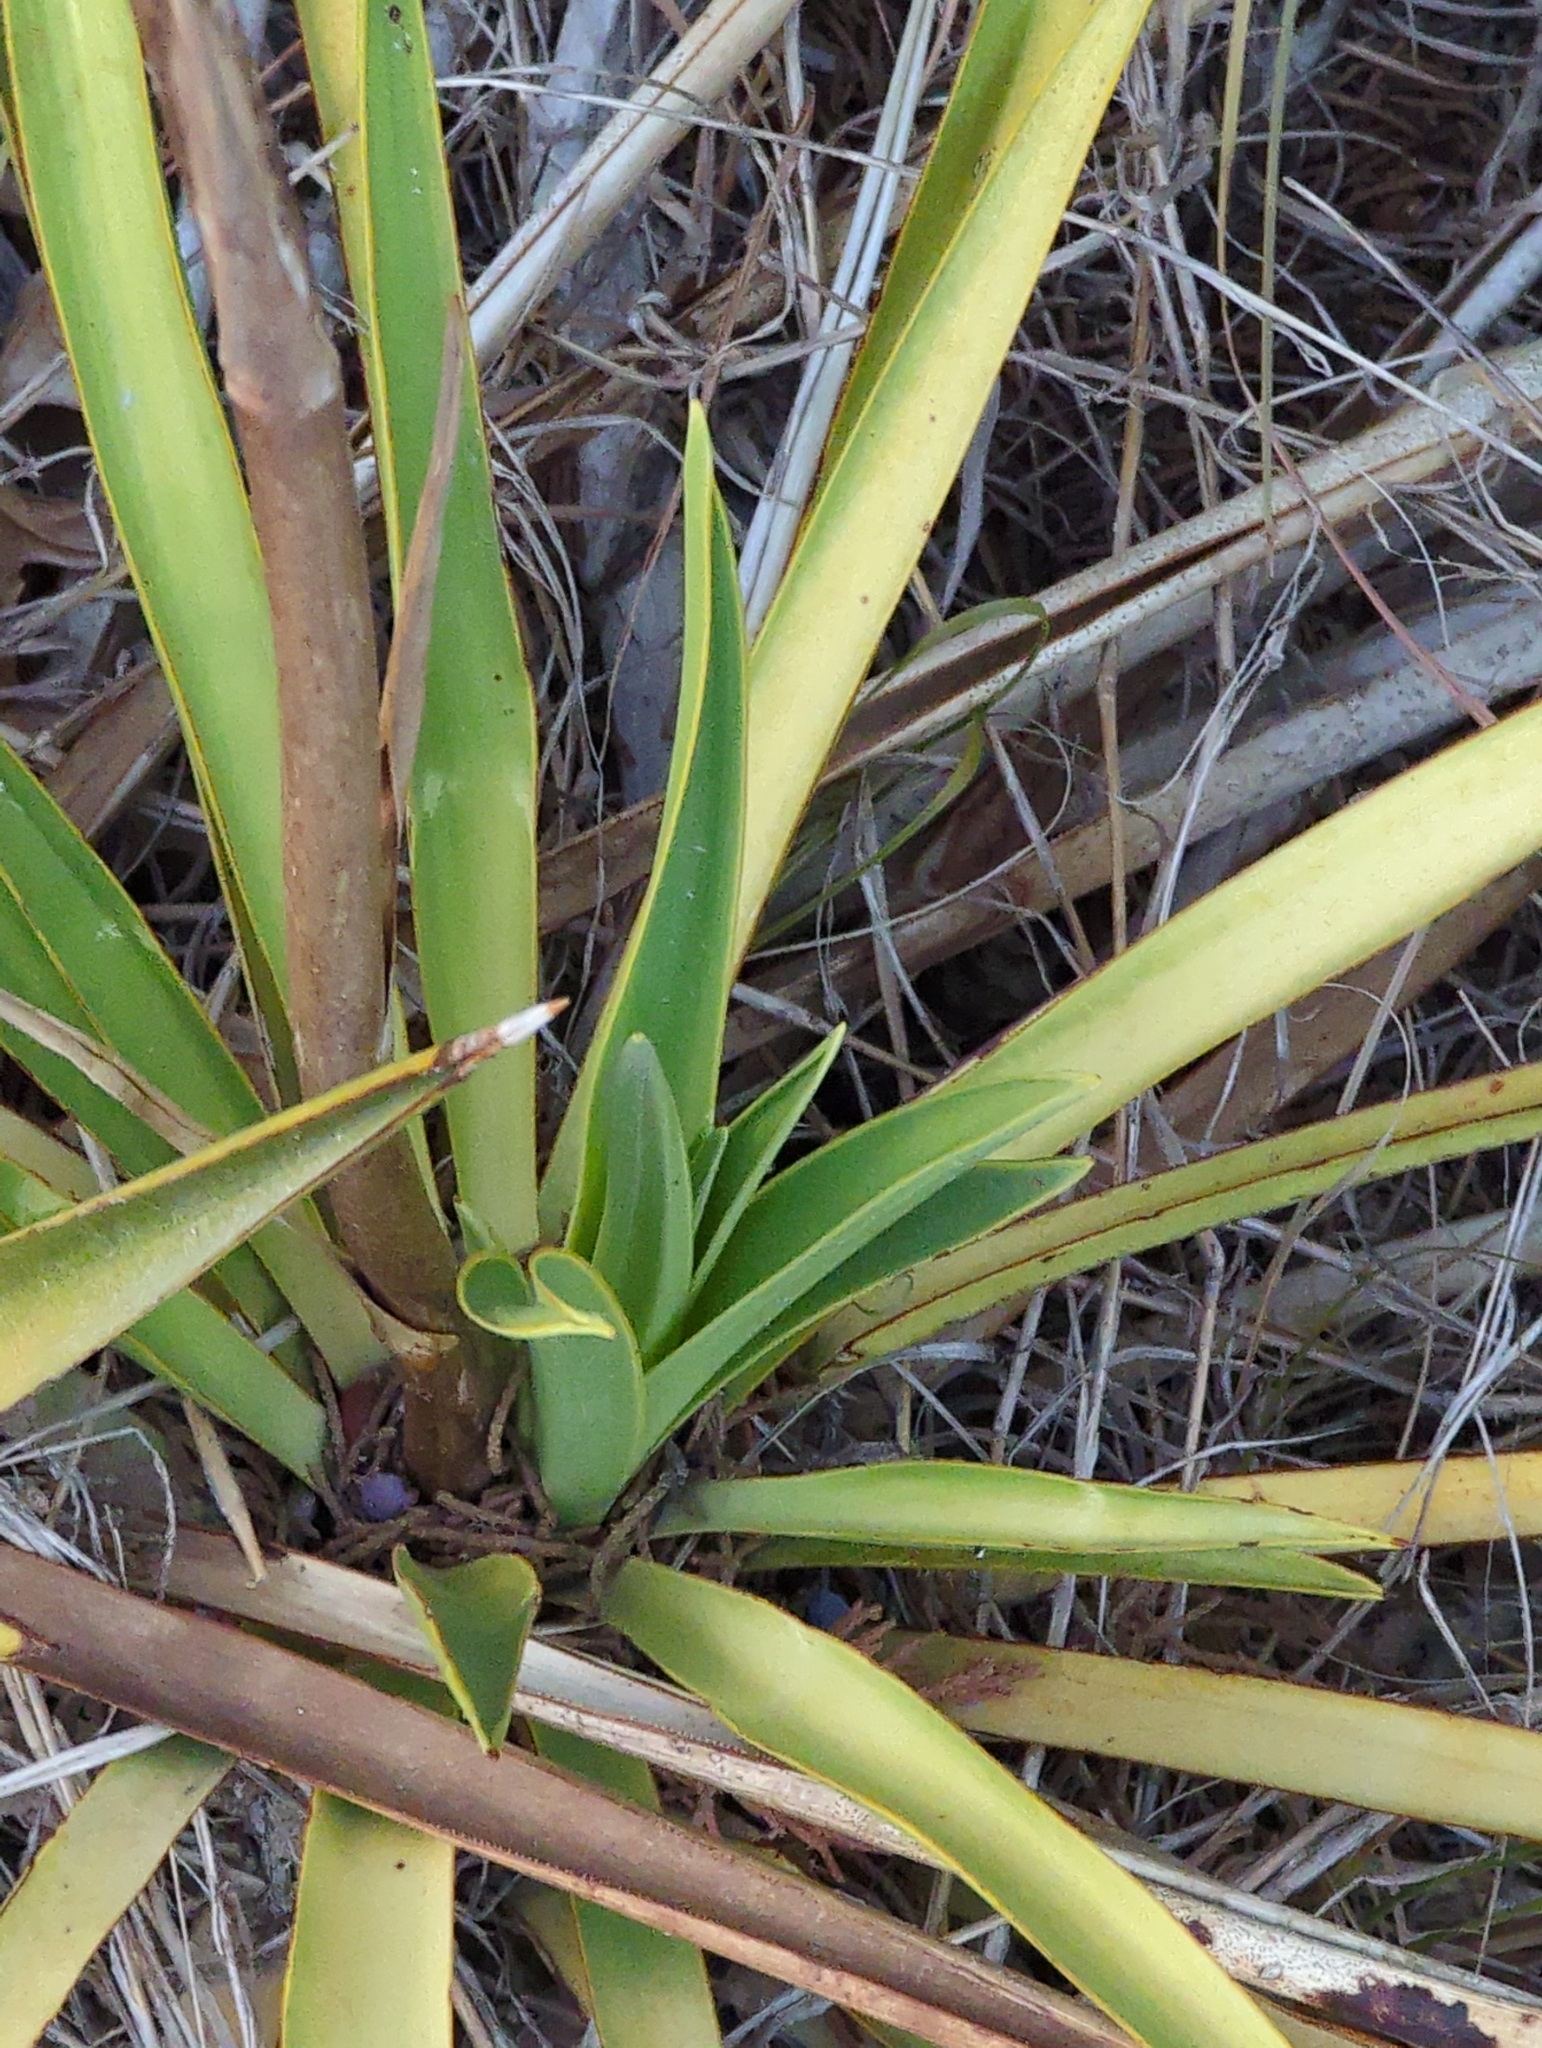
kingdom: Plantae
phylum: Tracheophyta
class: Liliopsida
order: Asparagales
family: Asparagaceae
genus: Yucca
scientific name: Yucca rupicola
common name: Twisted-leaf spanish-dagger
